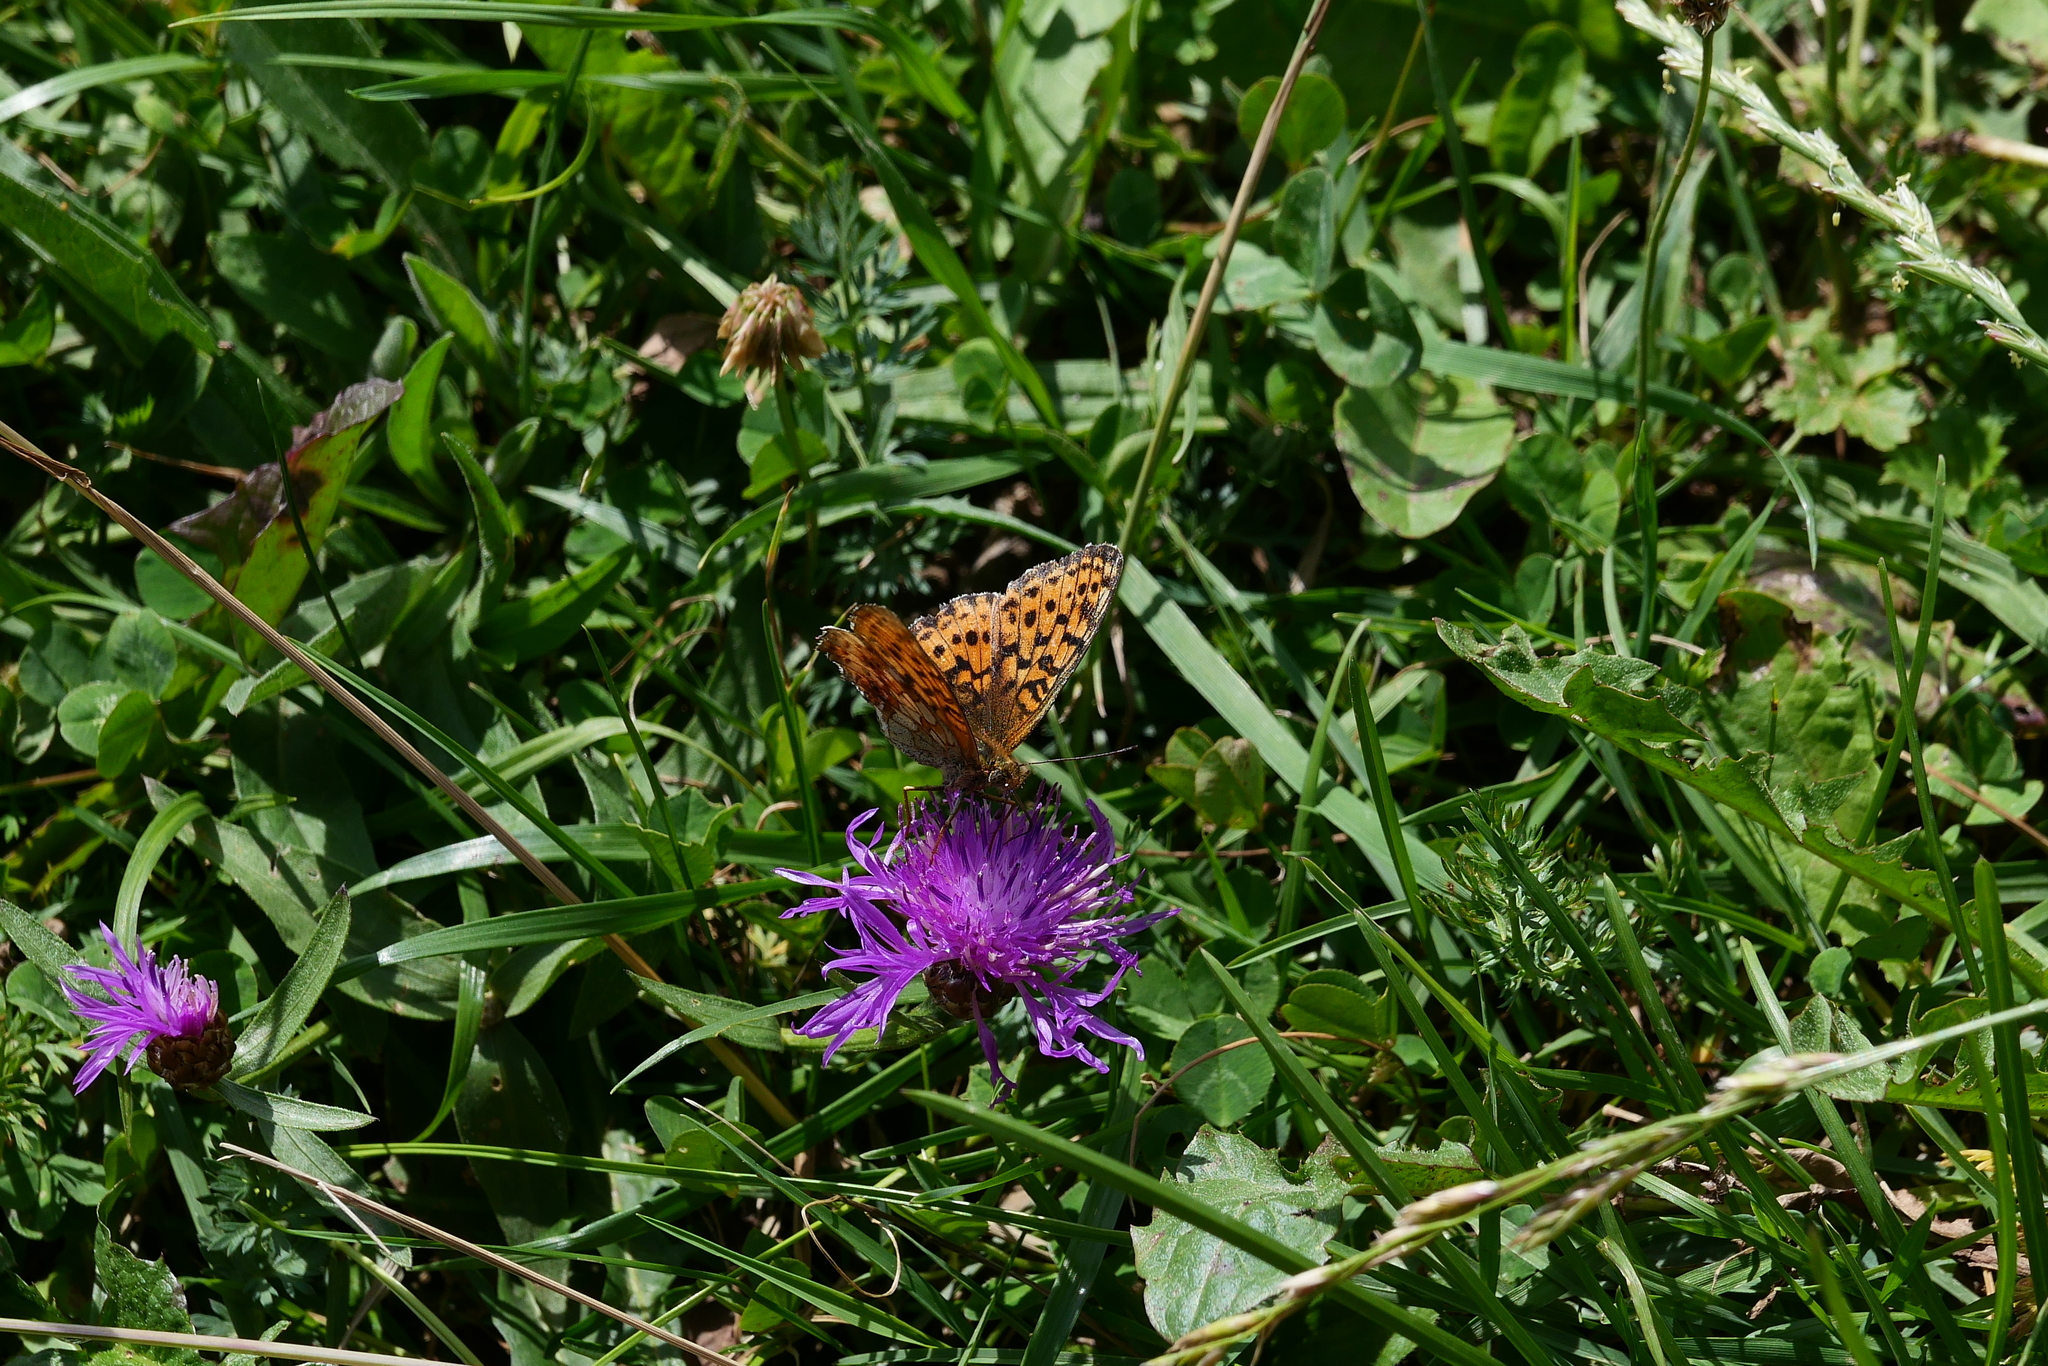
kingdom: Animalia
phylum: Arthropoda
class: Insecta
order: Lepidoptera
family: Nymphalidae
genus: Brenthis
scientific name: Brenthis ino
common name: Lesser marbled fritillary
